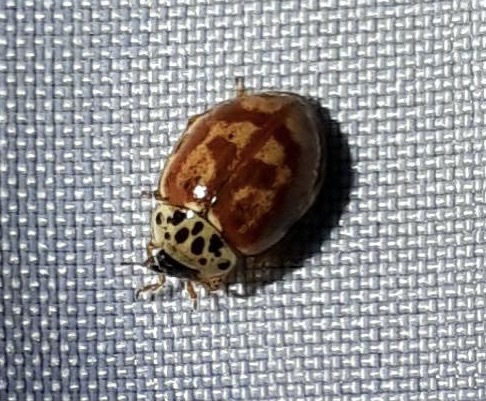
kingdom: Animalia
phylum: Arthropoda
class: Insecta
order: Coleoptera
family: Coccinellidae
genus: Harmonia
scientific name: Harmonia quadripunctata
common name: Cream-streaked ladybird
